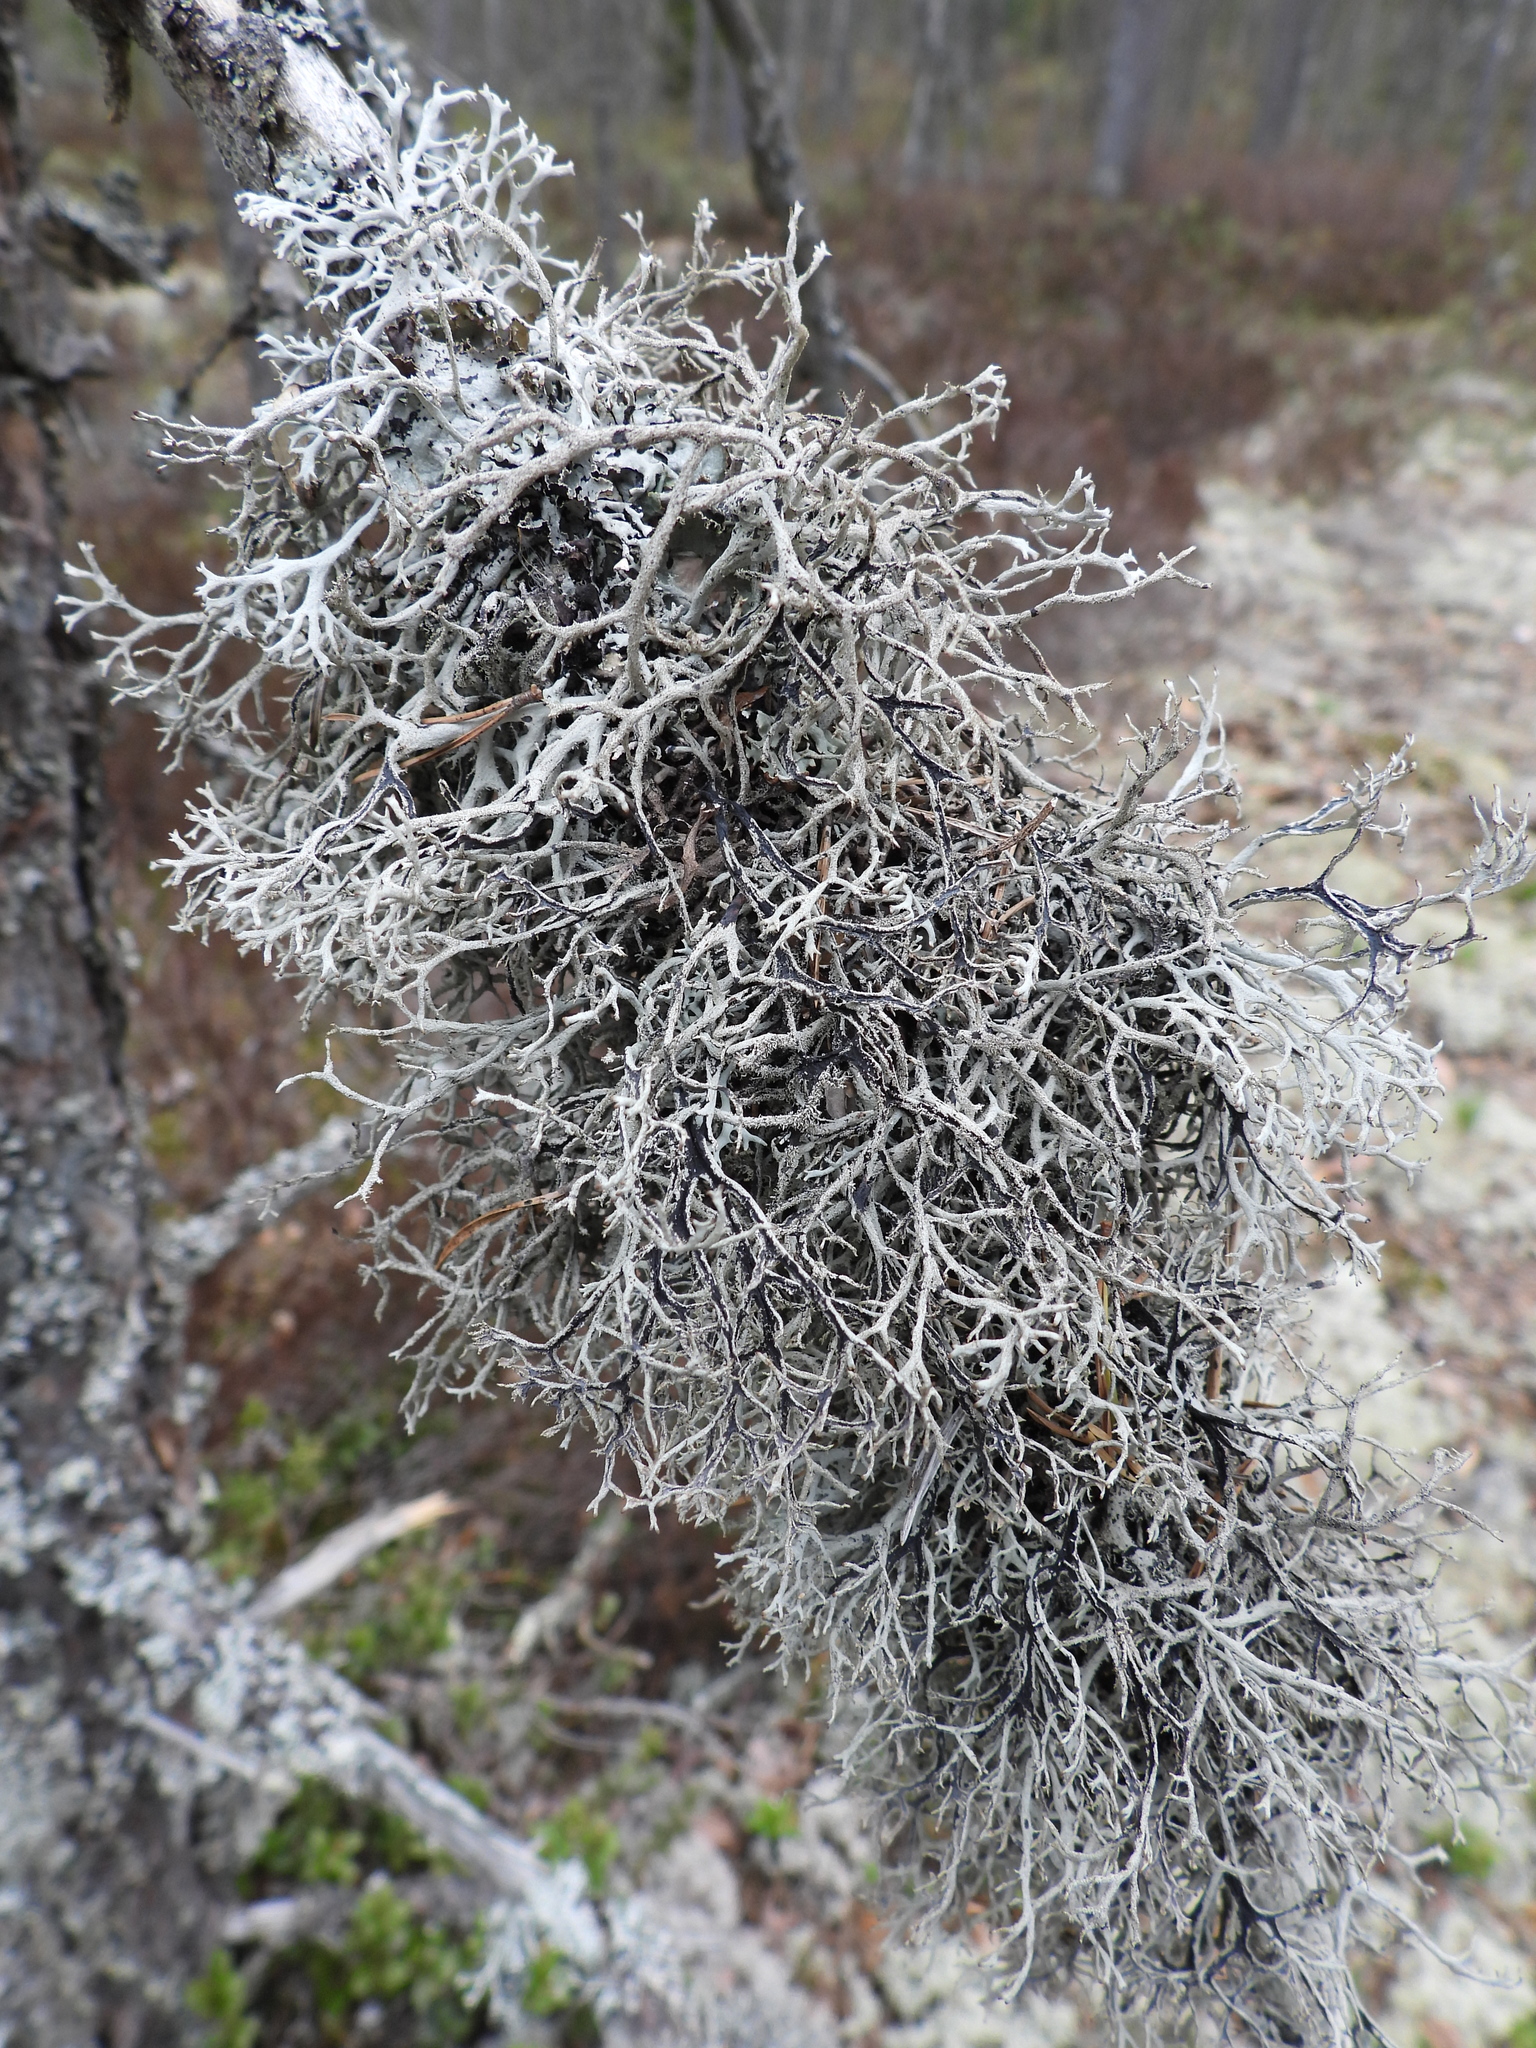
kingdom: Fungi
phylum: Ascomycota
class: Lecanoromycetes
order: Lecanorales
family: Parmeliaceae
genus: Pseudevernia
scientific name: Pseudevernia furfuracea
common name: Tree moss
